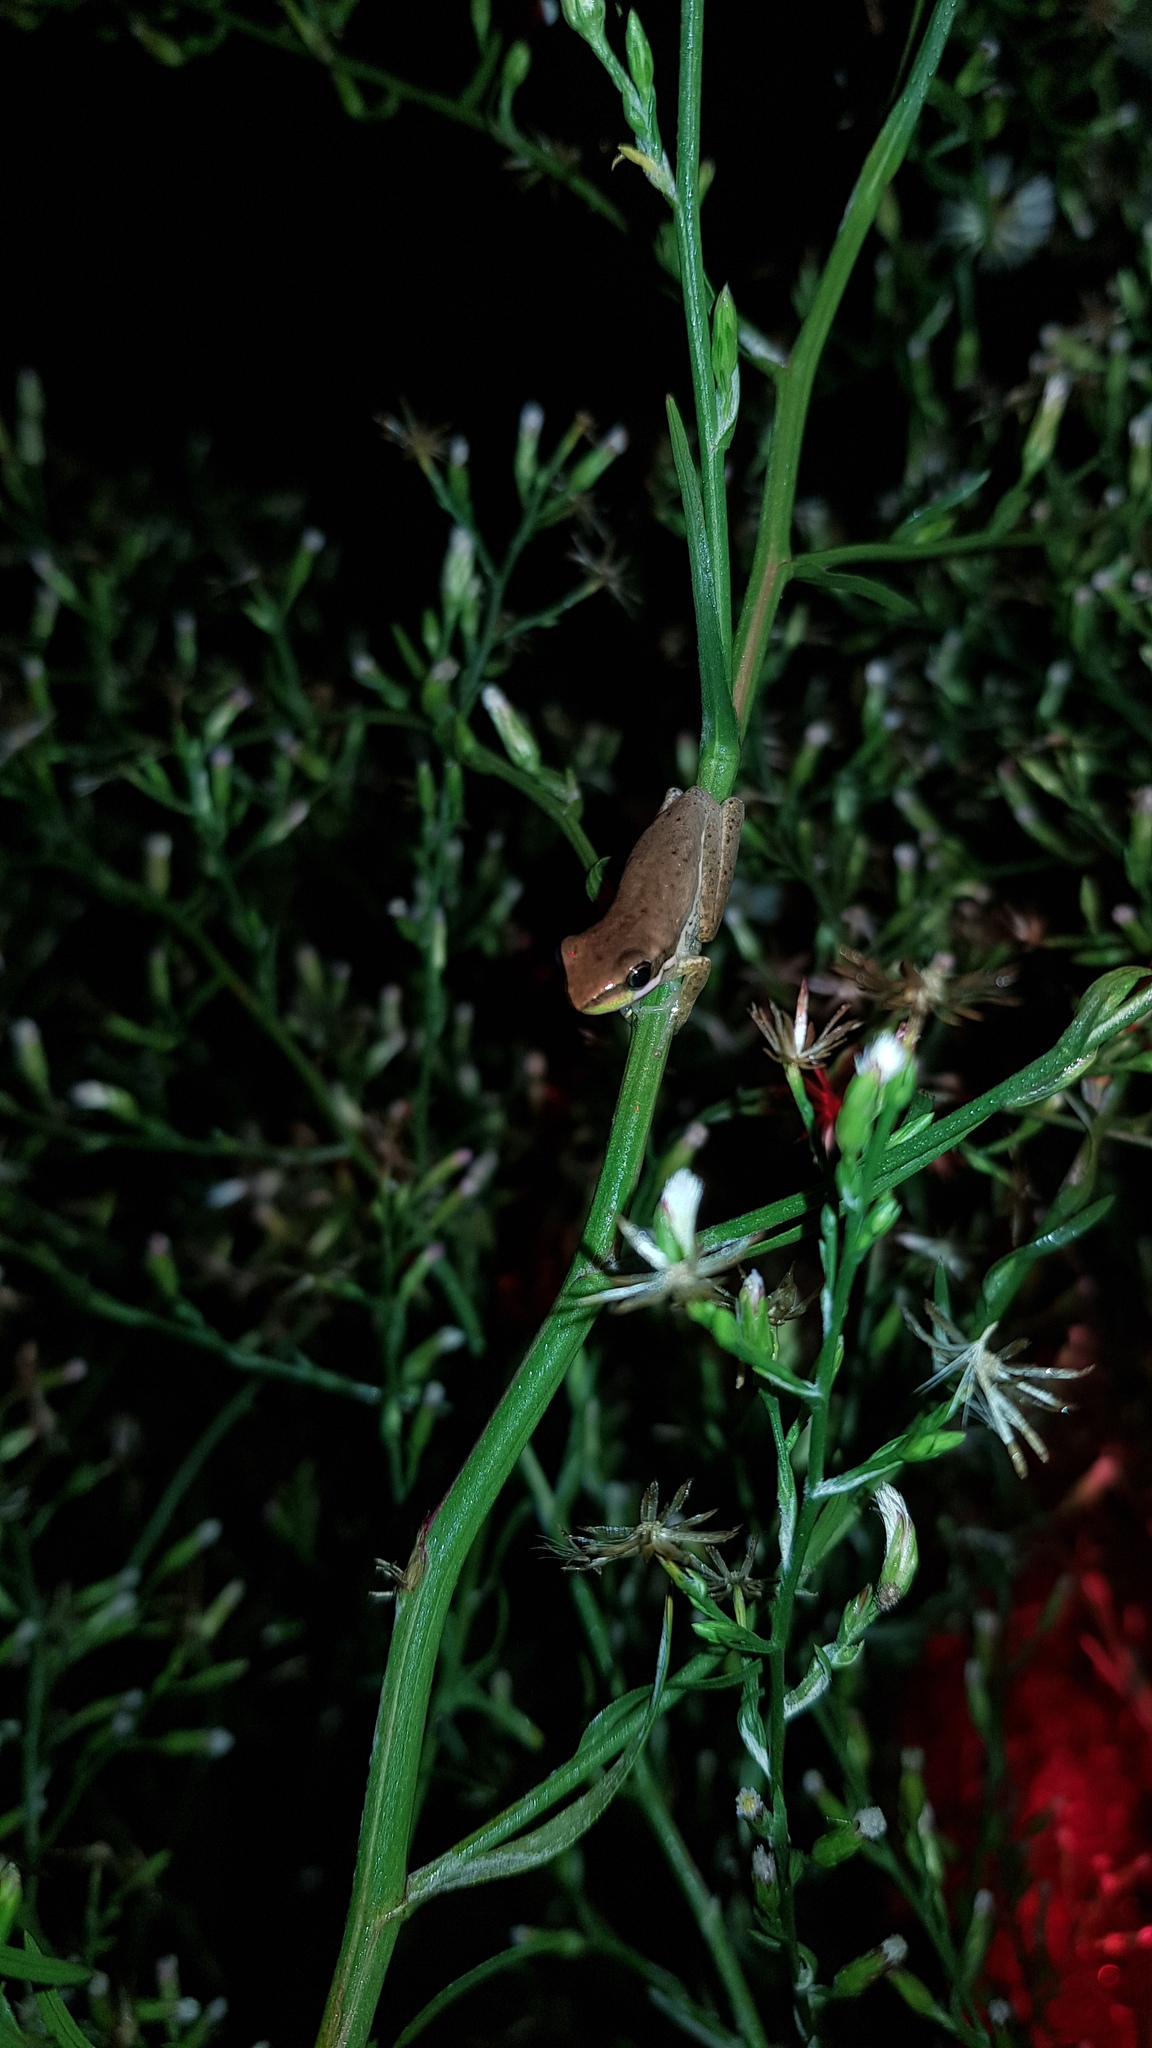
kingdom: Animalia
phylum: Chordata
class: Amphibia
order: Anura
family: Pelodryadidae
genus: Litoria
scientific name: Litoria fallax
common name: Eastern dwarf treefrog
